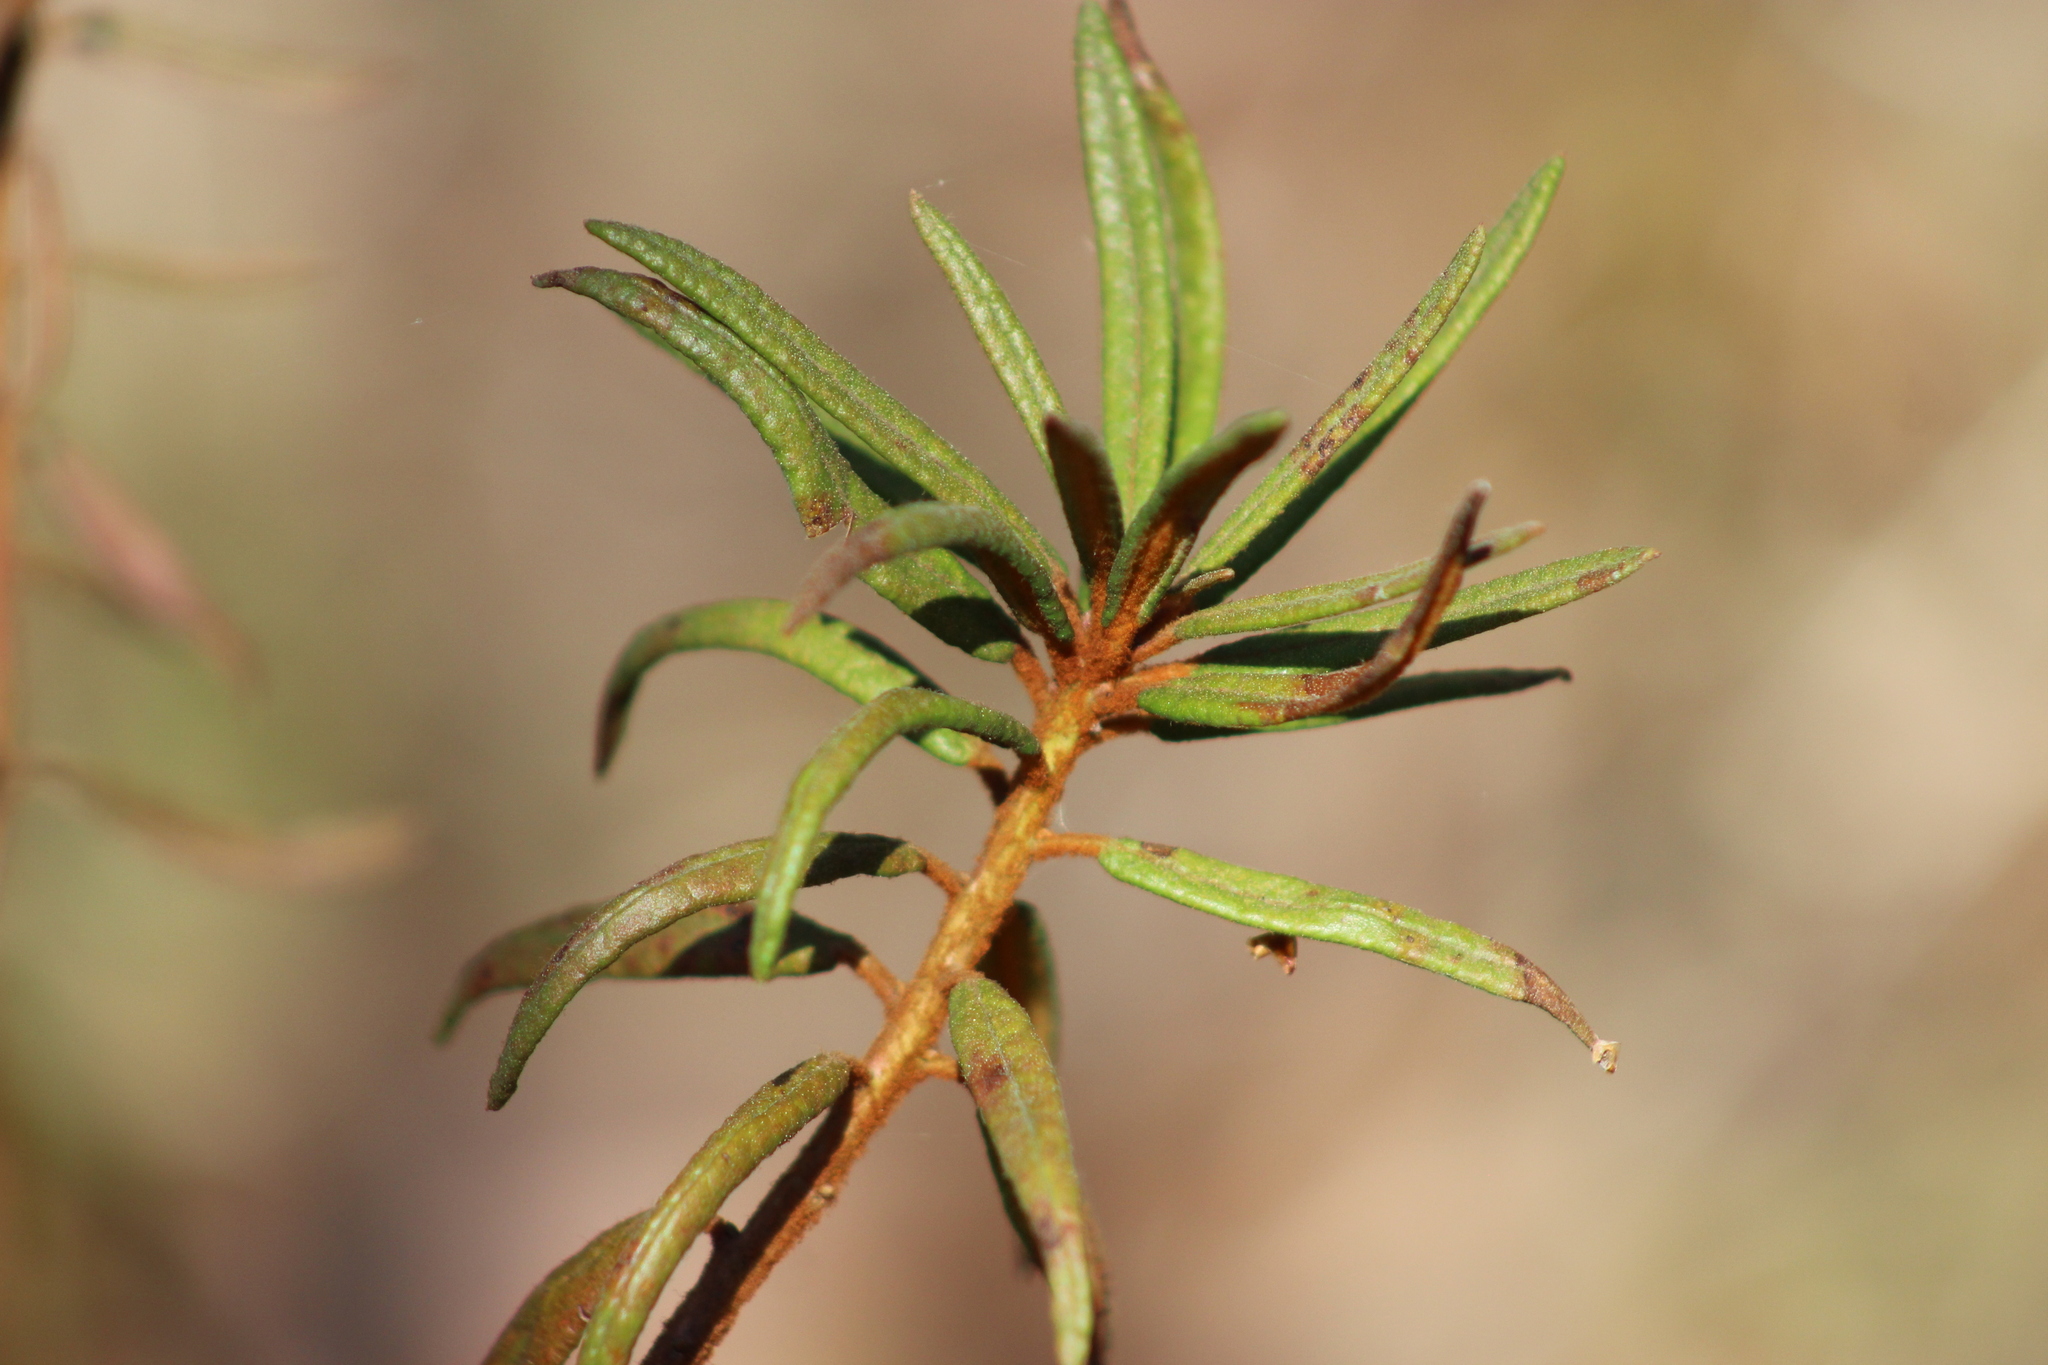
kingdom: Plantae
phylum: Tracheophyta
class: Magnoliopsida
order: Ericales
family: Ericaceae
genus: Rhododendron
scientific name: Rhododendron tomentosum
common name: Marsh labrador tea
